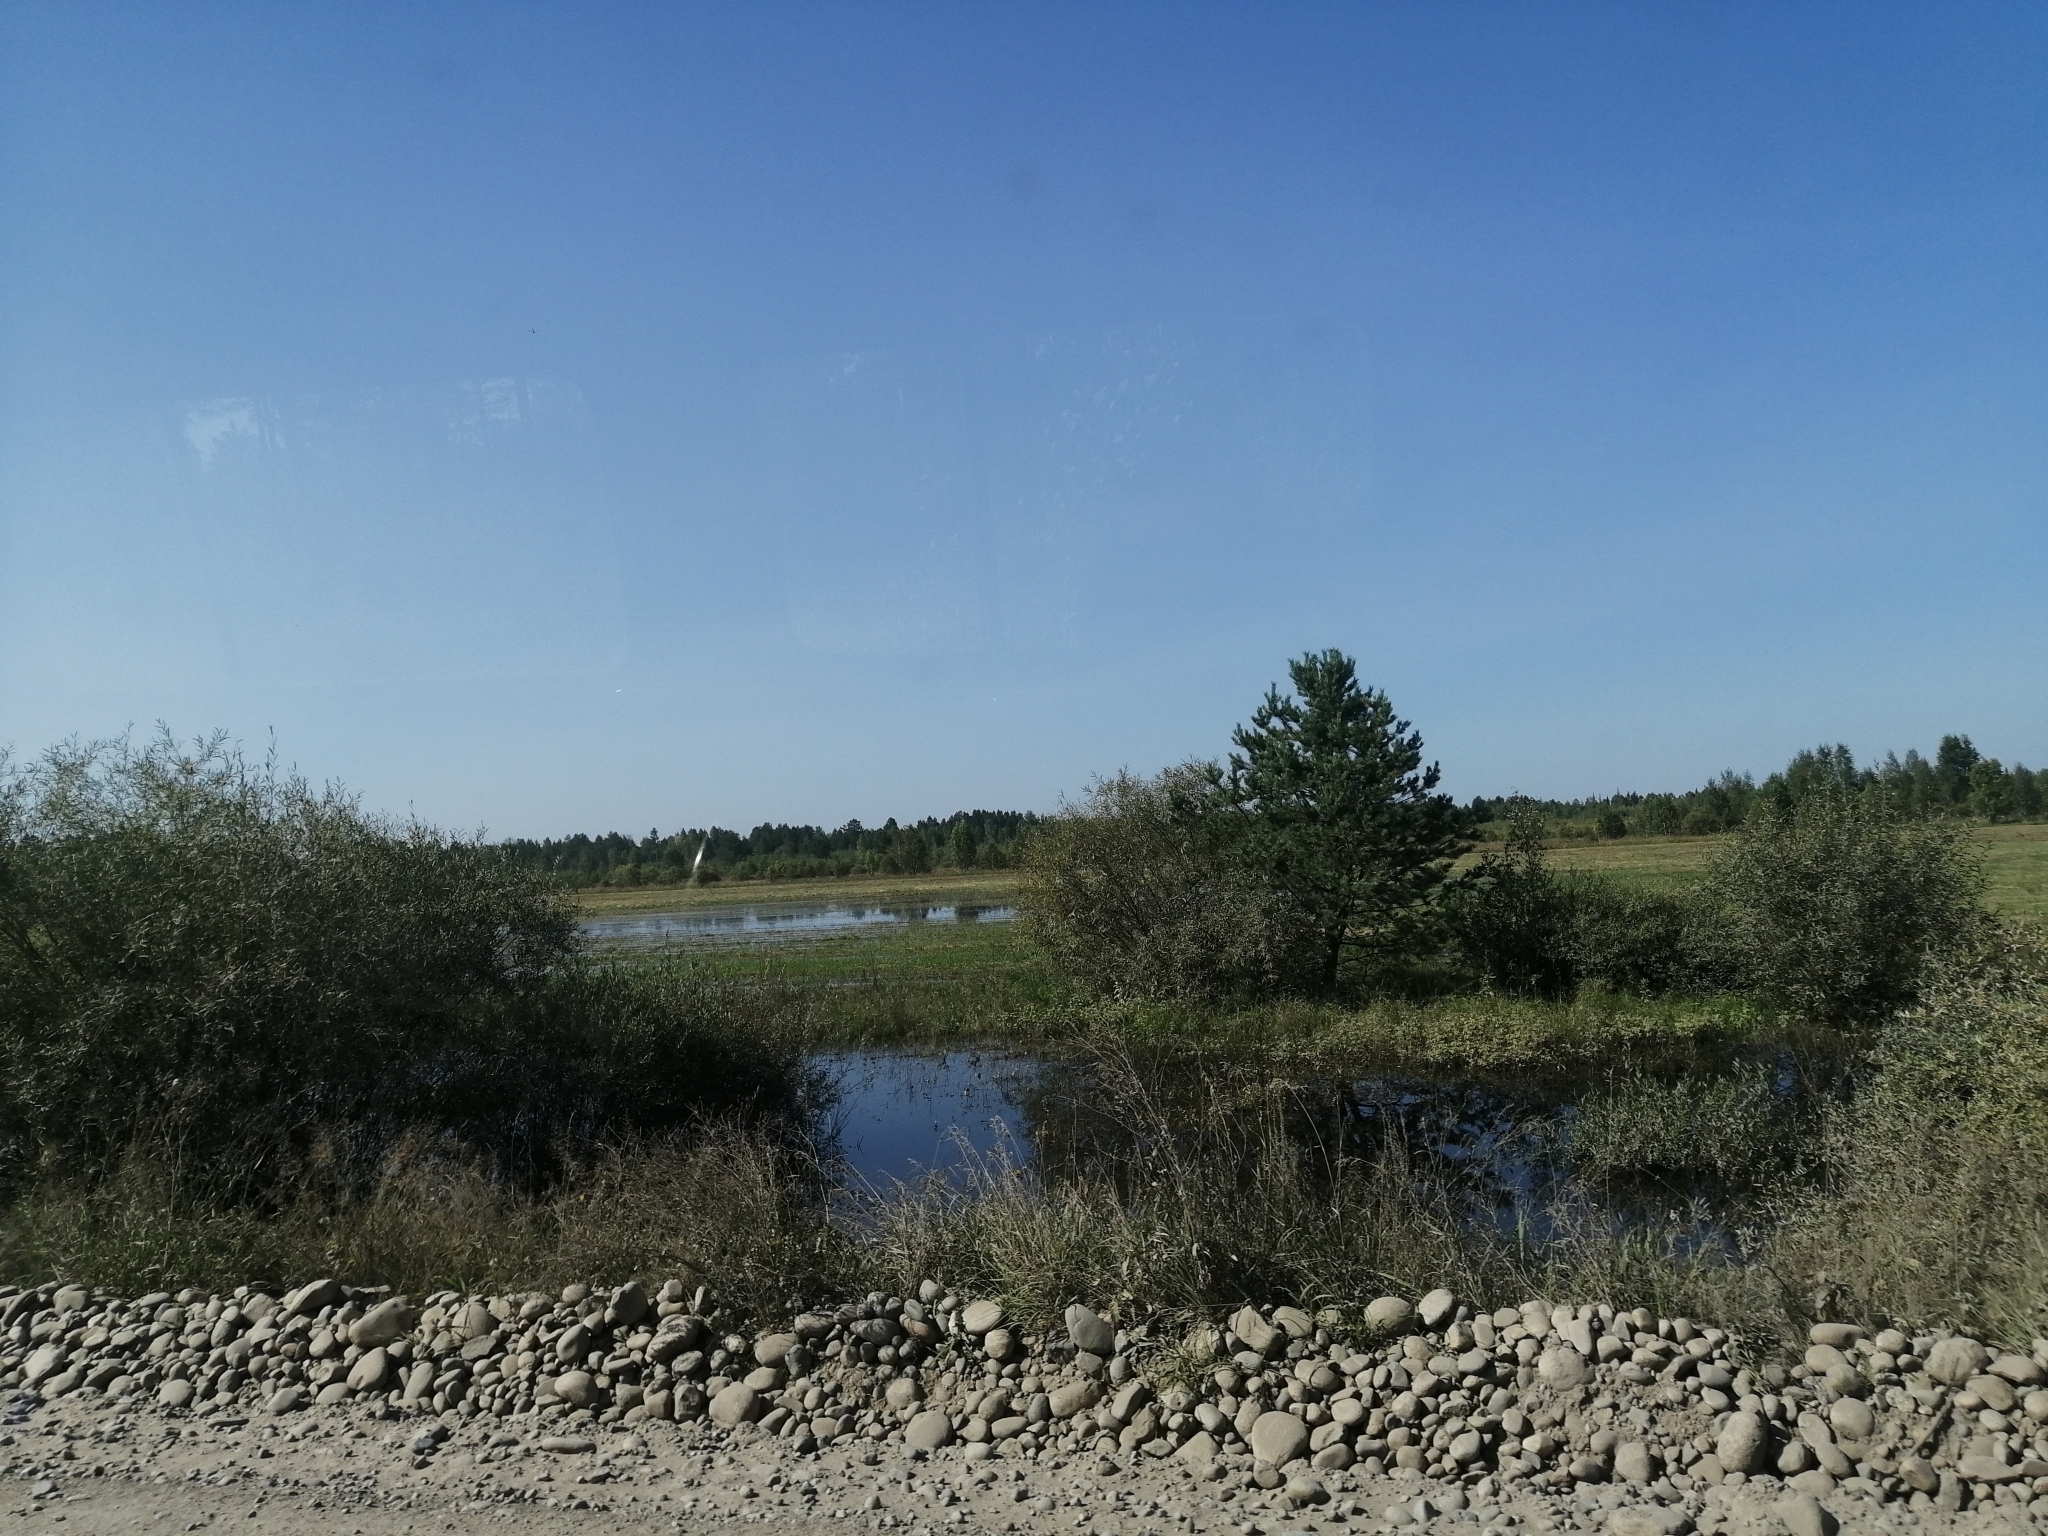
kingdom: Plantae
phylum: Tracheophyta
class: Pinopsida
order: Pinales
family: Pinaceae
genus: Pinus
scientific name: Pinus sylvestris
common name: Scots pine
